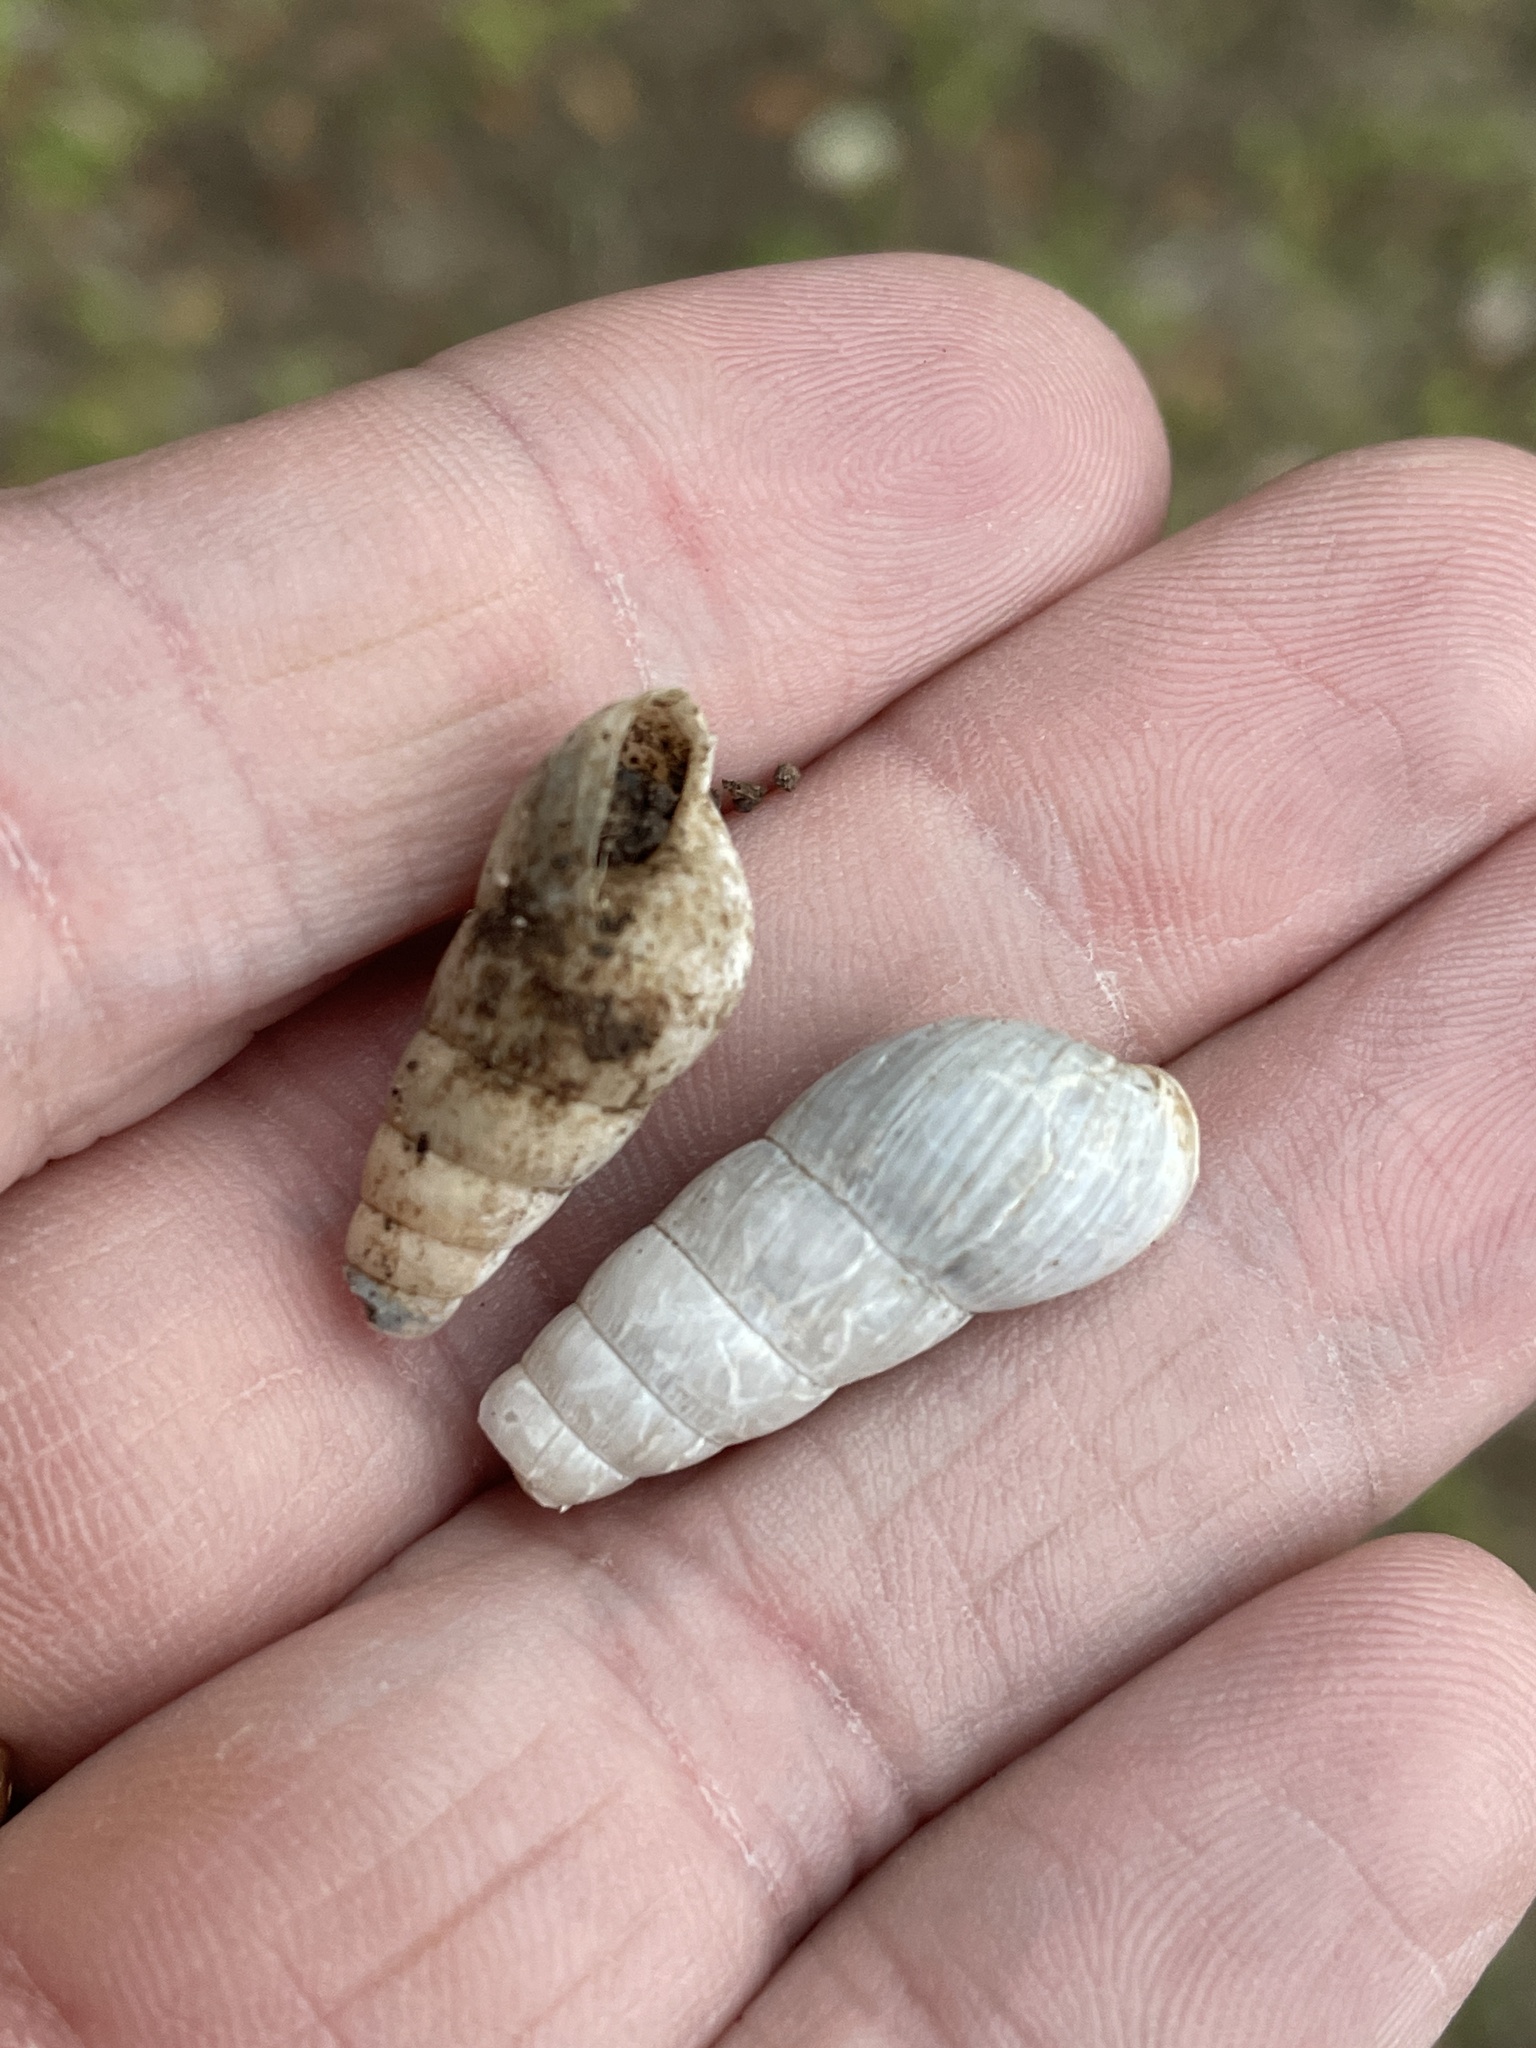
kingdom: Animalia
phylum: Mollusca
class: Gastropoda
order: Stylommatophora
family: Achatinidae
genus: Rumina
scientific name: Rumina decollata
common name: Decollate snail
